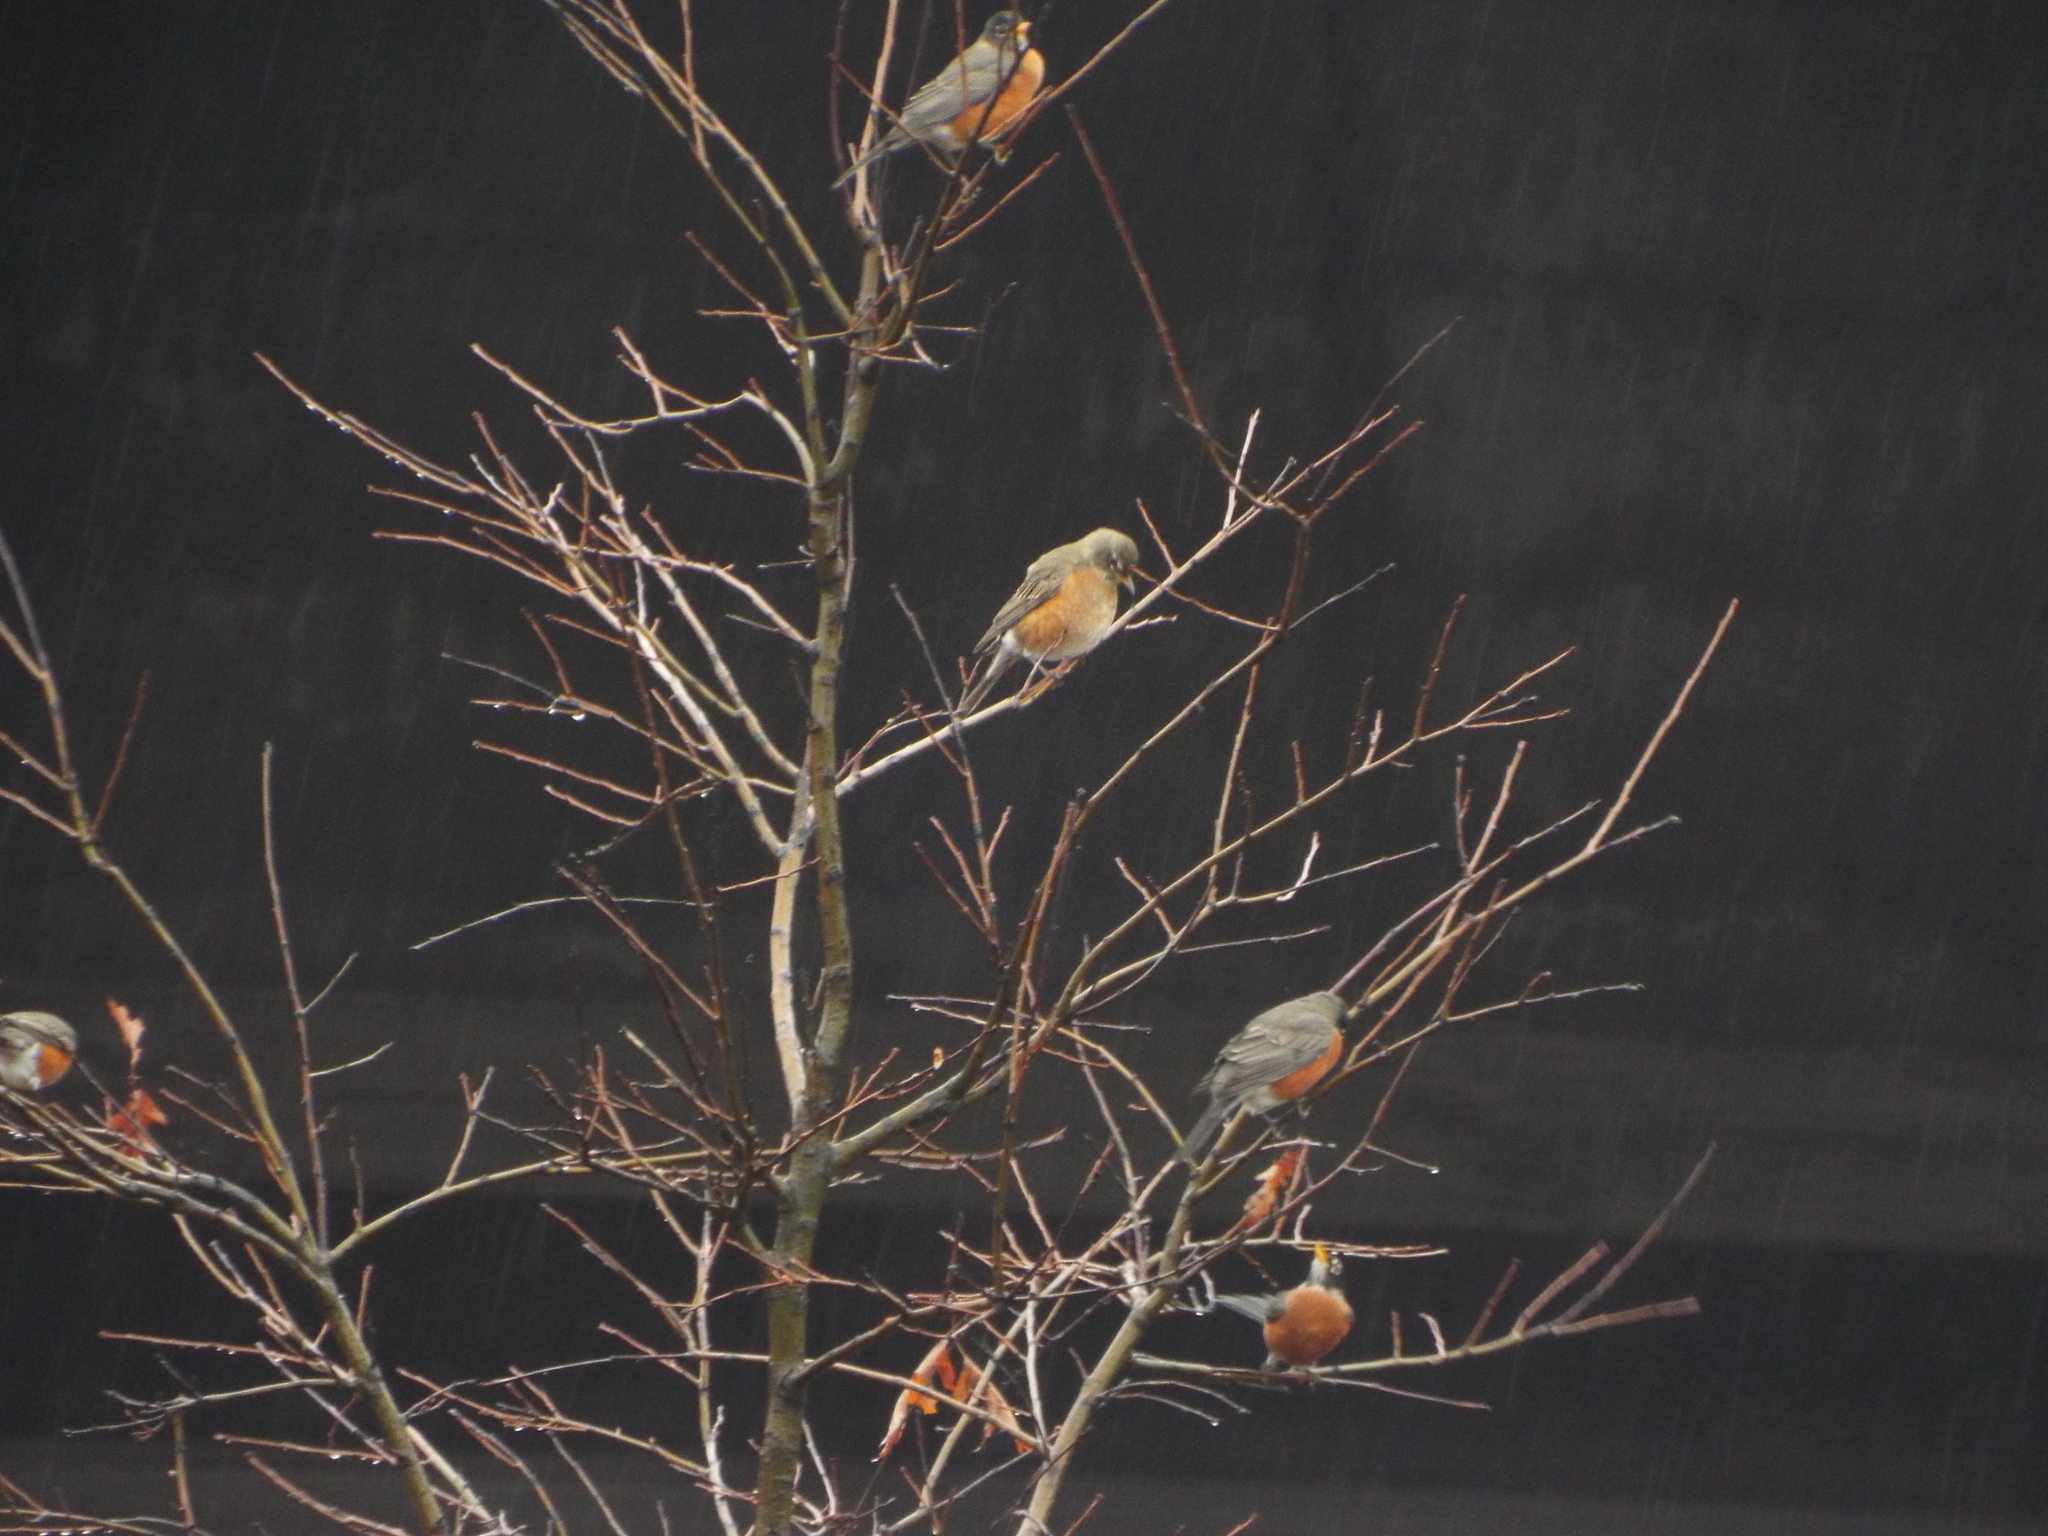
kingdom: Animalia
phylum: Chordata
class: Aves
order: Passeriformes
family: Turdidae
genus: Turdus
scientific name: Turdus migratorius
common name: American robin
